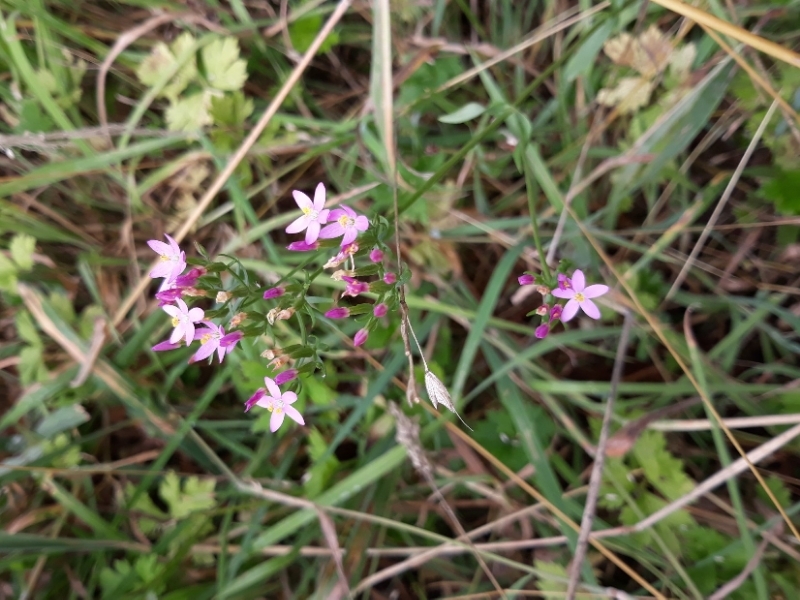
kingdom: Plantae
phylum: Tracheophyta
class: Magnoliopsida
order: Gentianales
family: Gentianaceae
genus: Centaurium
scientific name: Centaurium erythraea
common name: Common centaury
